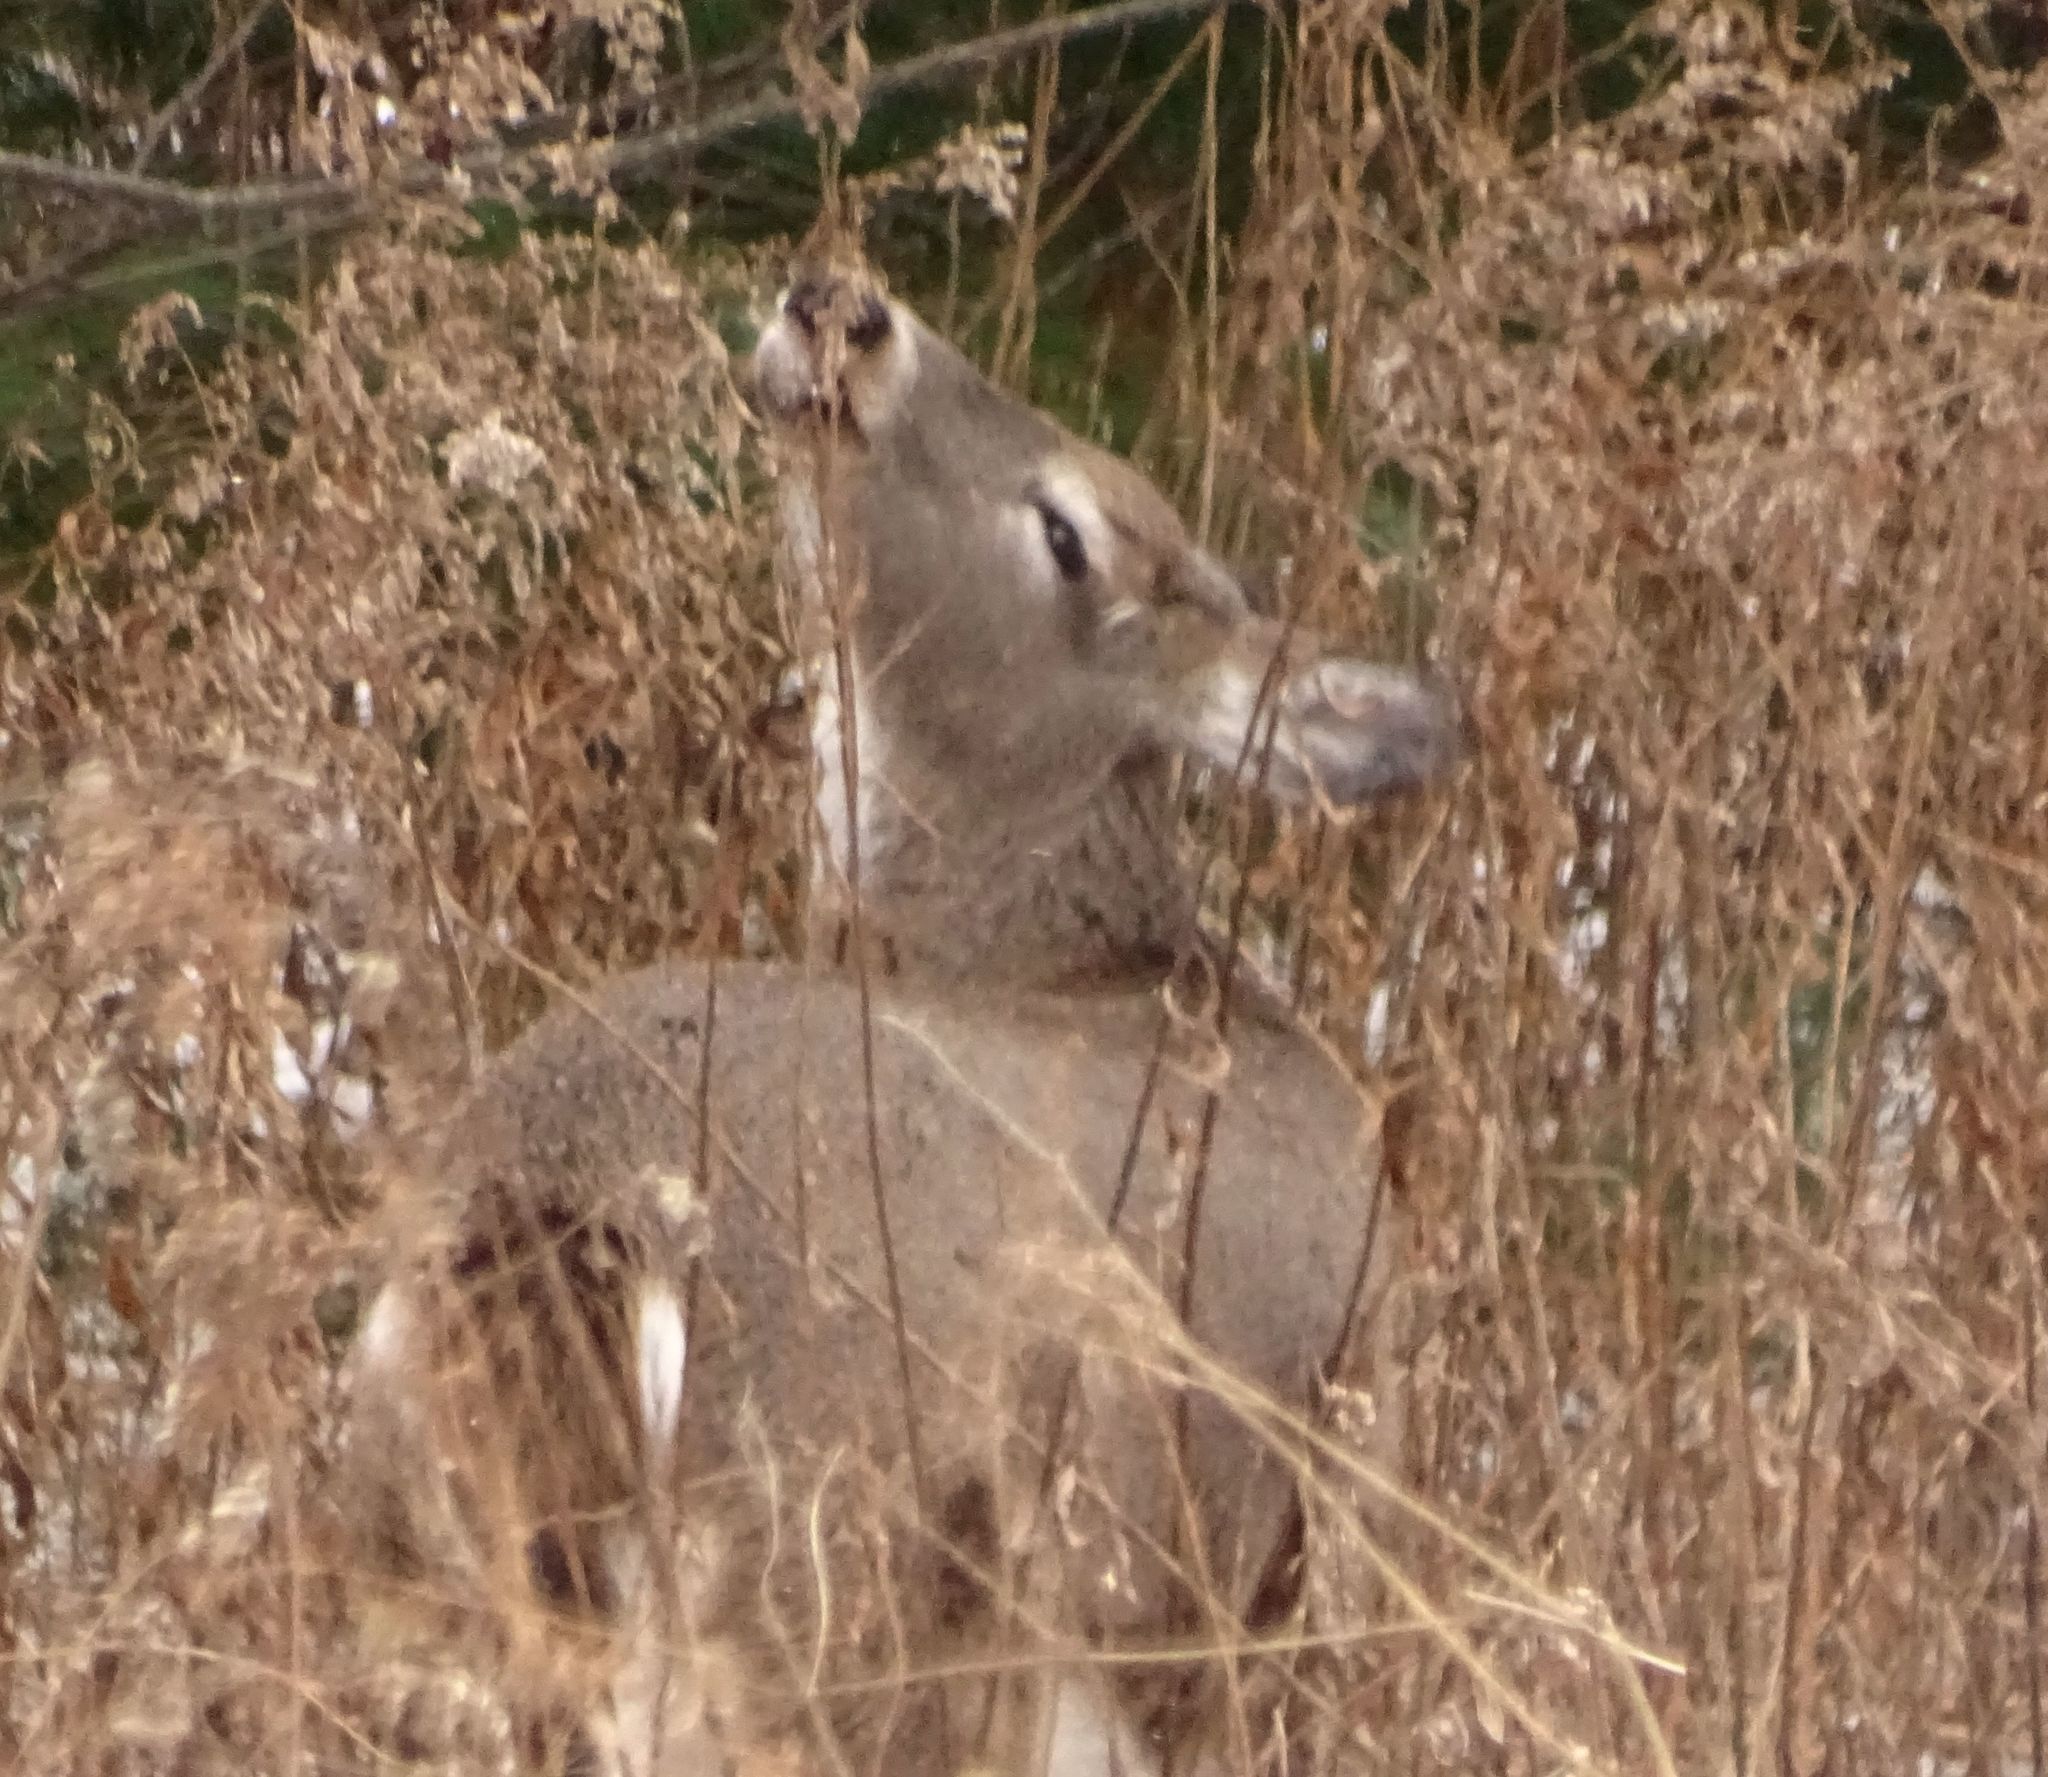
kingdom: Animalia
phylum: Chordata
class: Mammalia
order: Artiodactyla
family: Cervidae
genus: Odocoileus
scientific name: Odocoileus virginianus
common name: White-tailed deer
